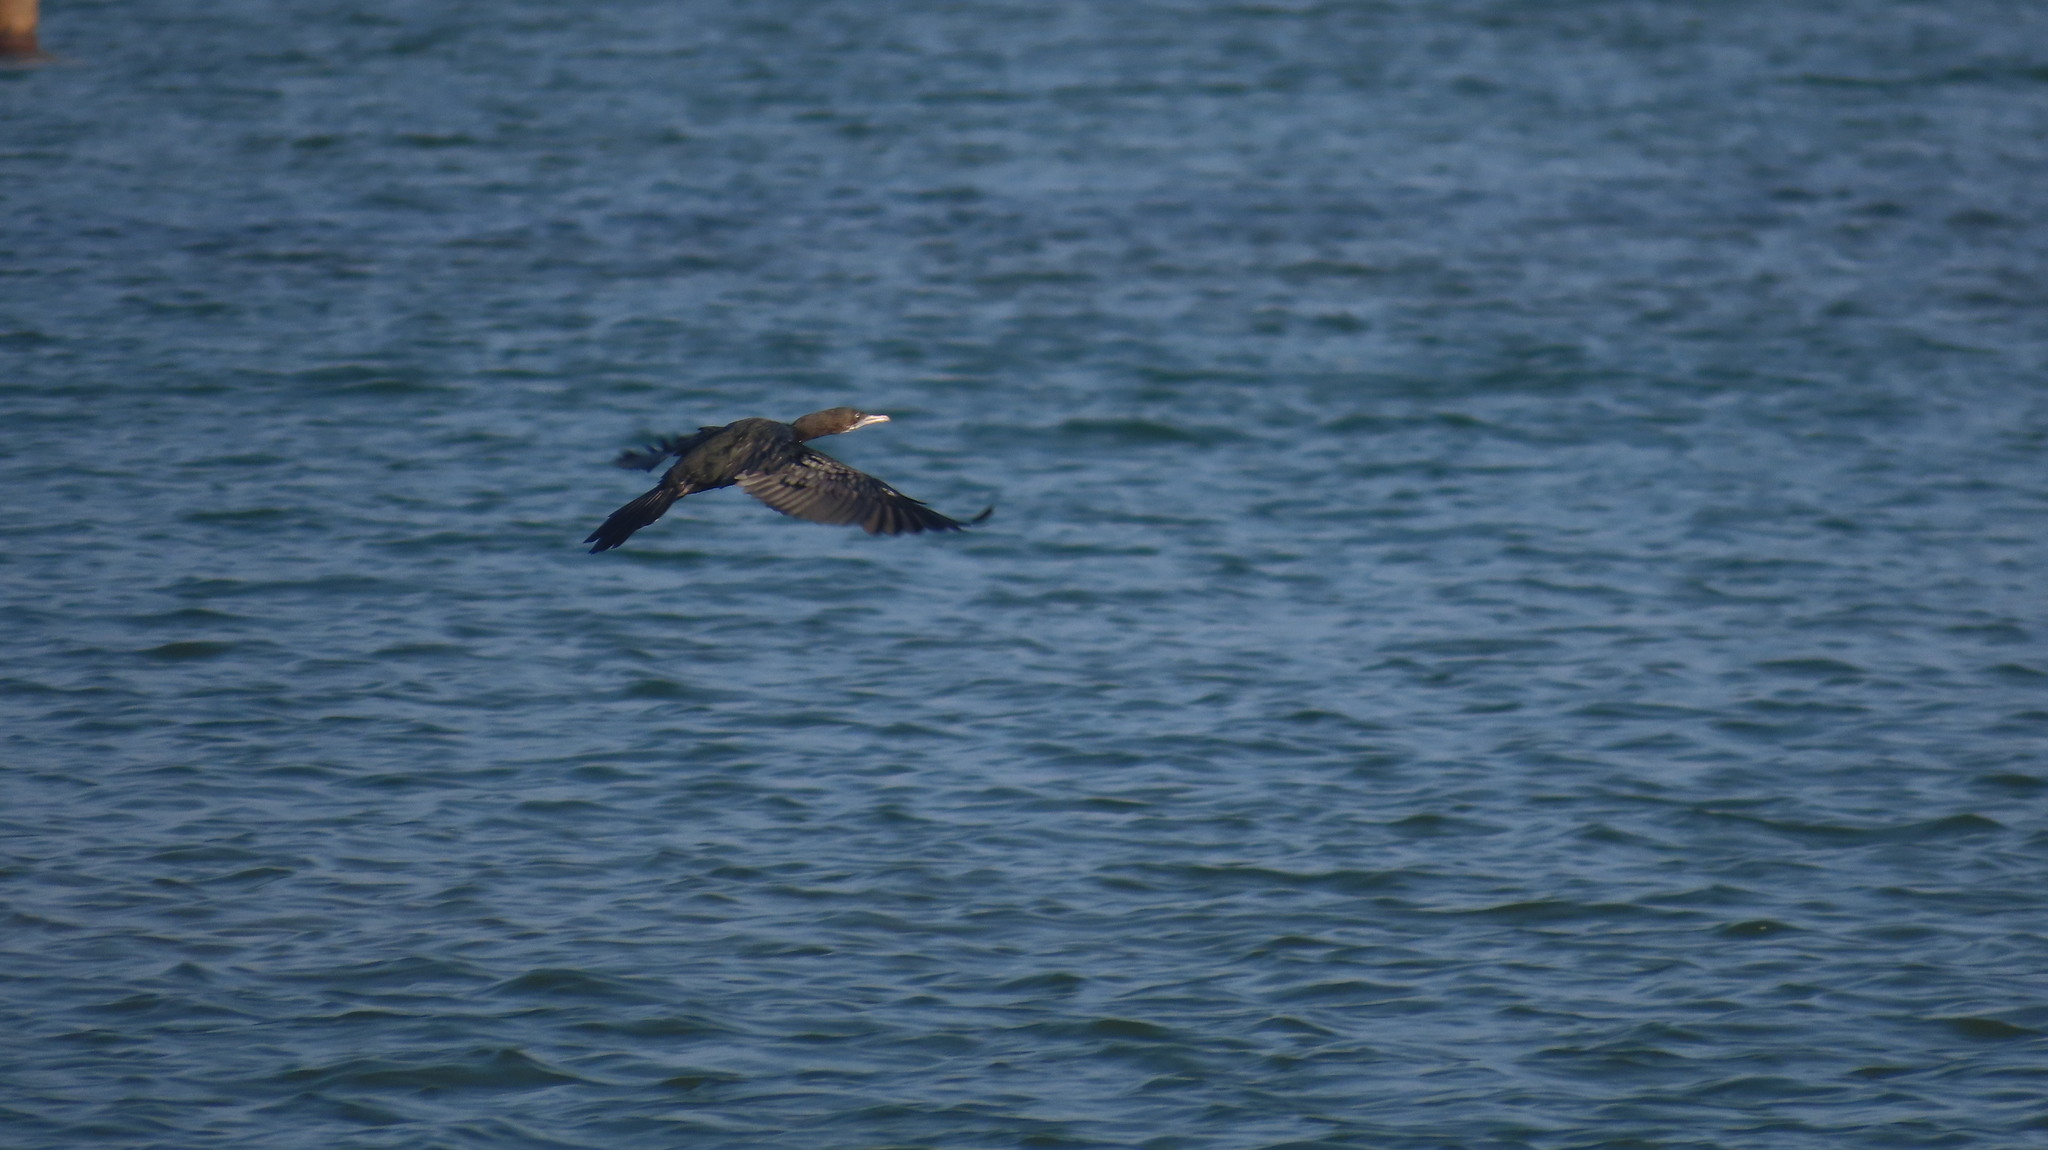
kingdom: Animalia
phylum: Chordata
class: Aves
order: Suliformes
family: Phalacrocoracidae
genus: Microcarbo
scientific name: Microcarbo niger
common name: Little cormorant
